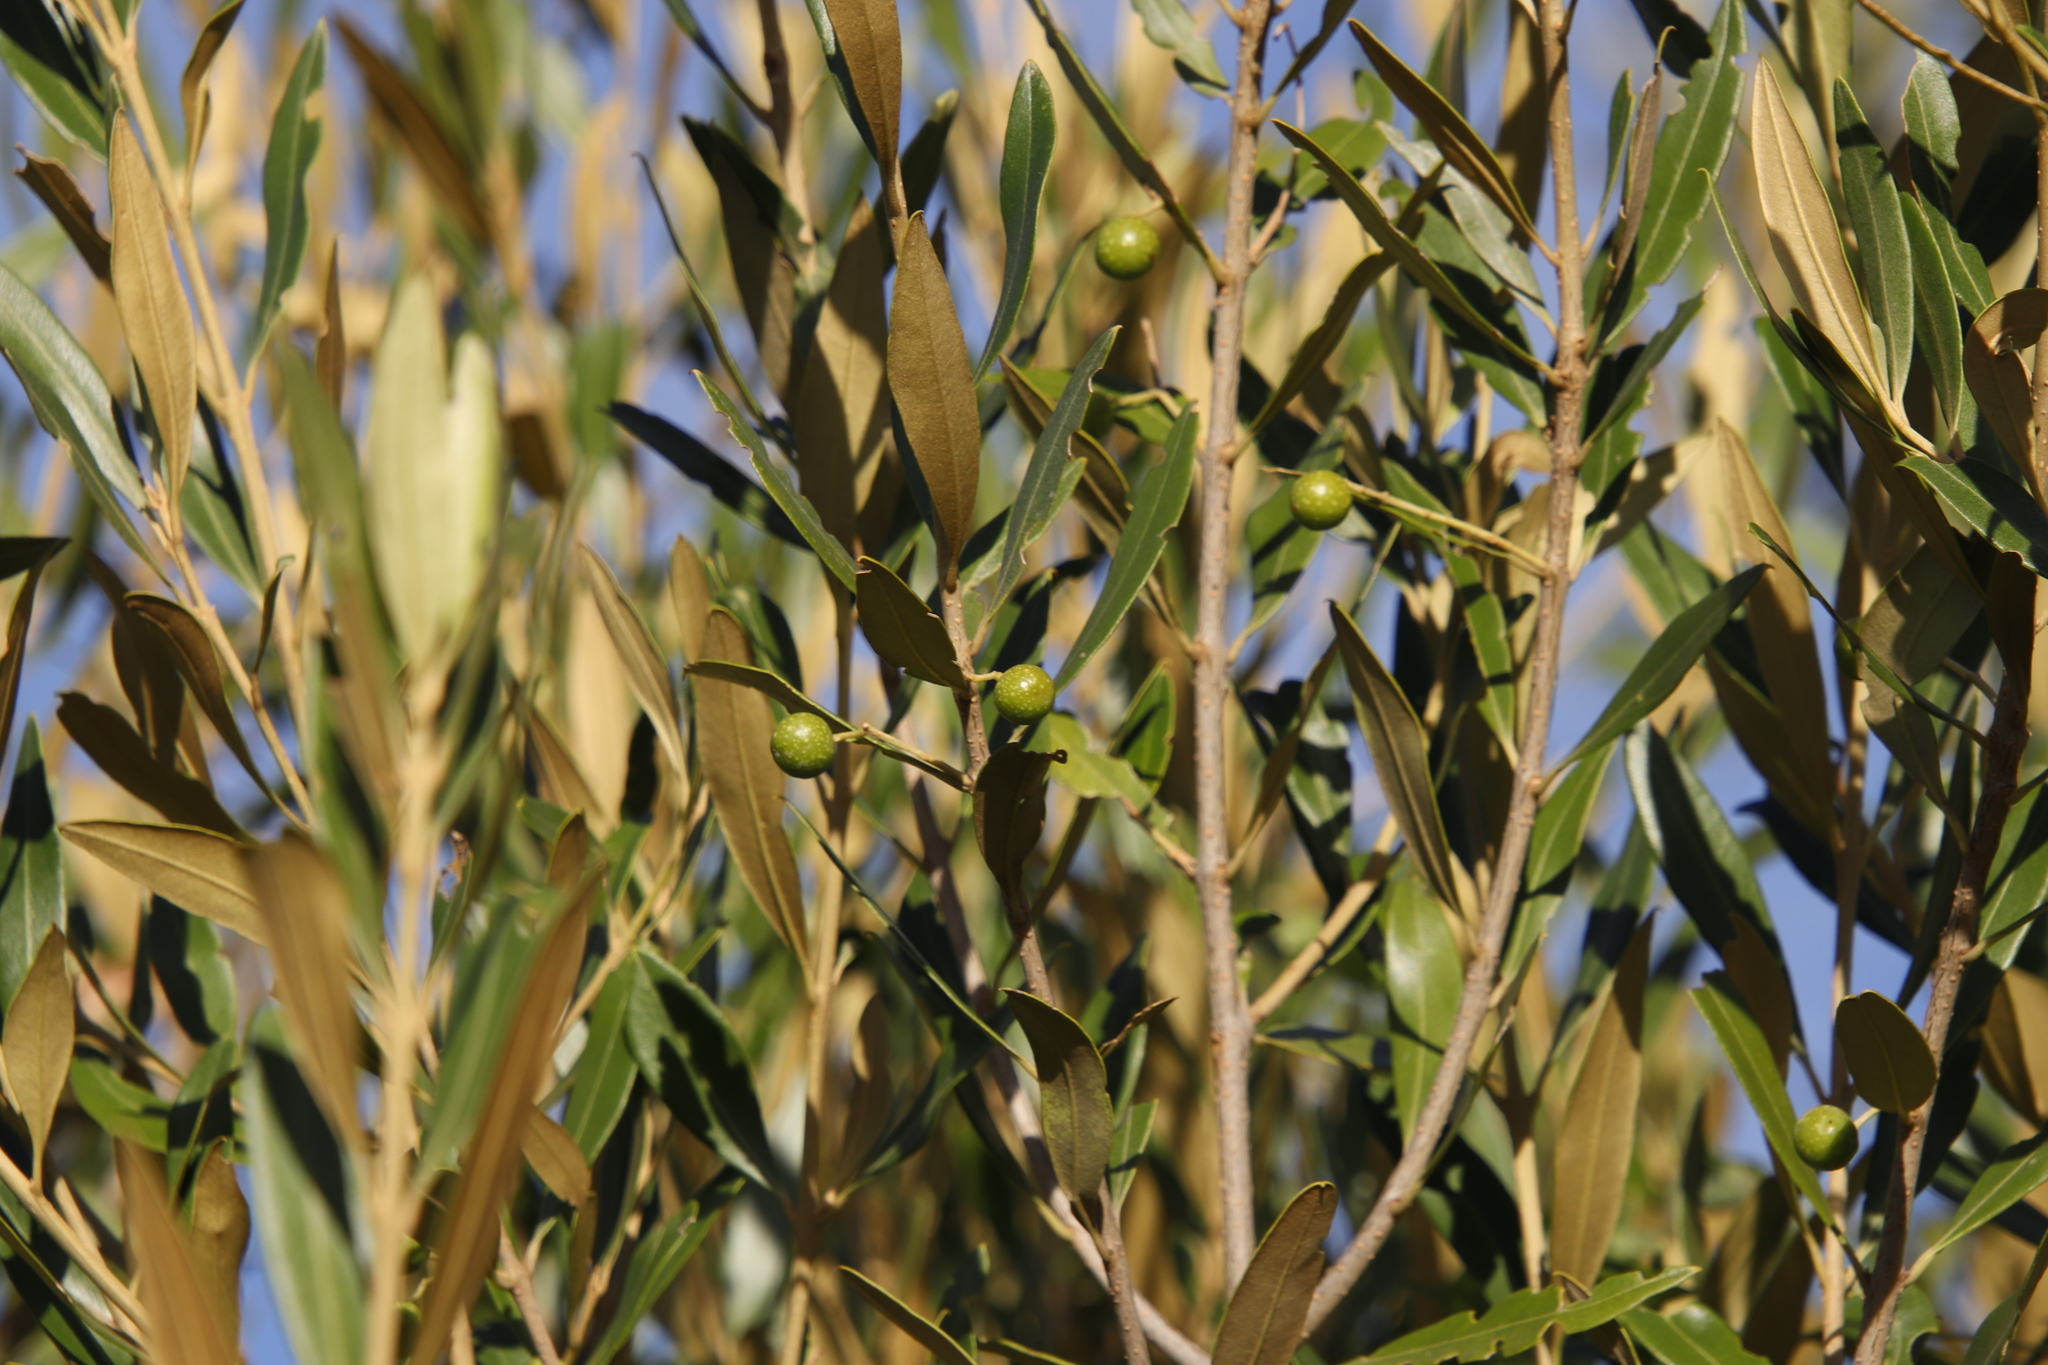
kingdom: Plantae
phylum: Tracheophyta
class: Magnoliopsida
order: Lamiales
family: Oleaceae
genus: Olea
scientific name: Olea europaea
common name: Olive
